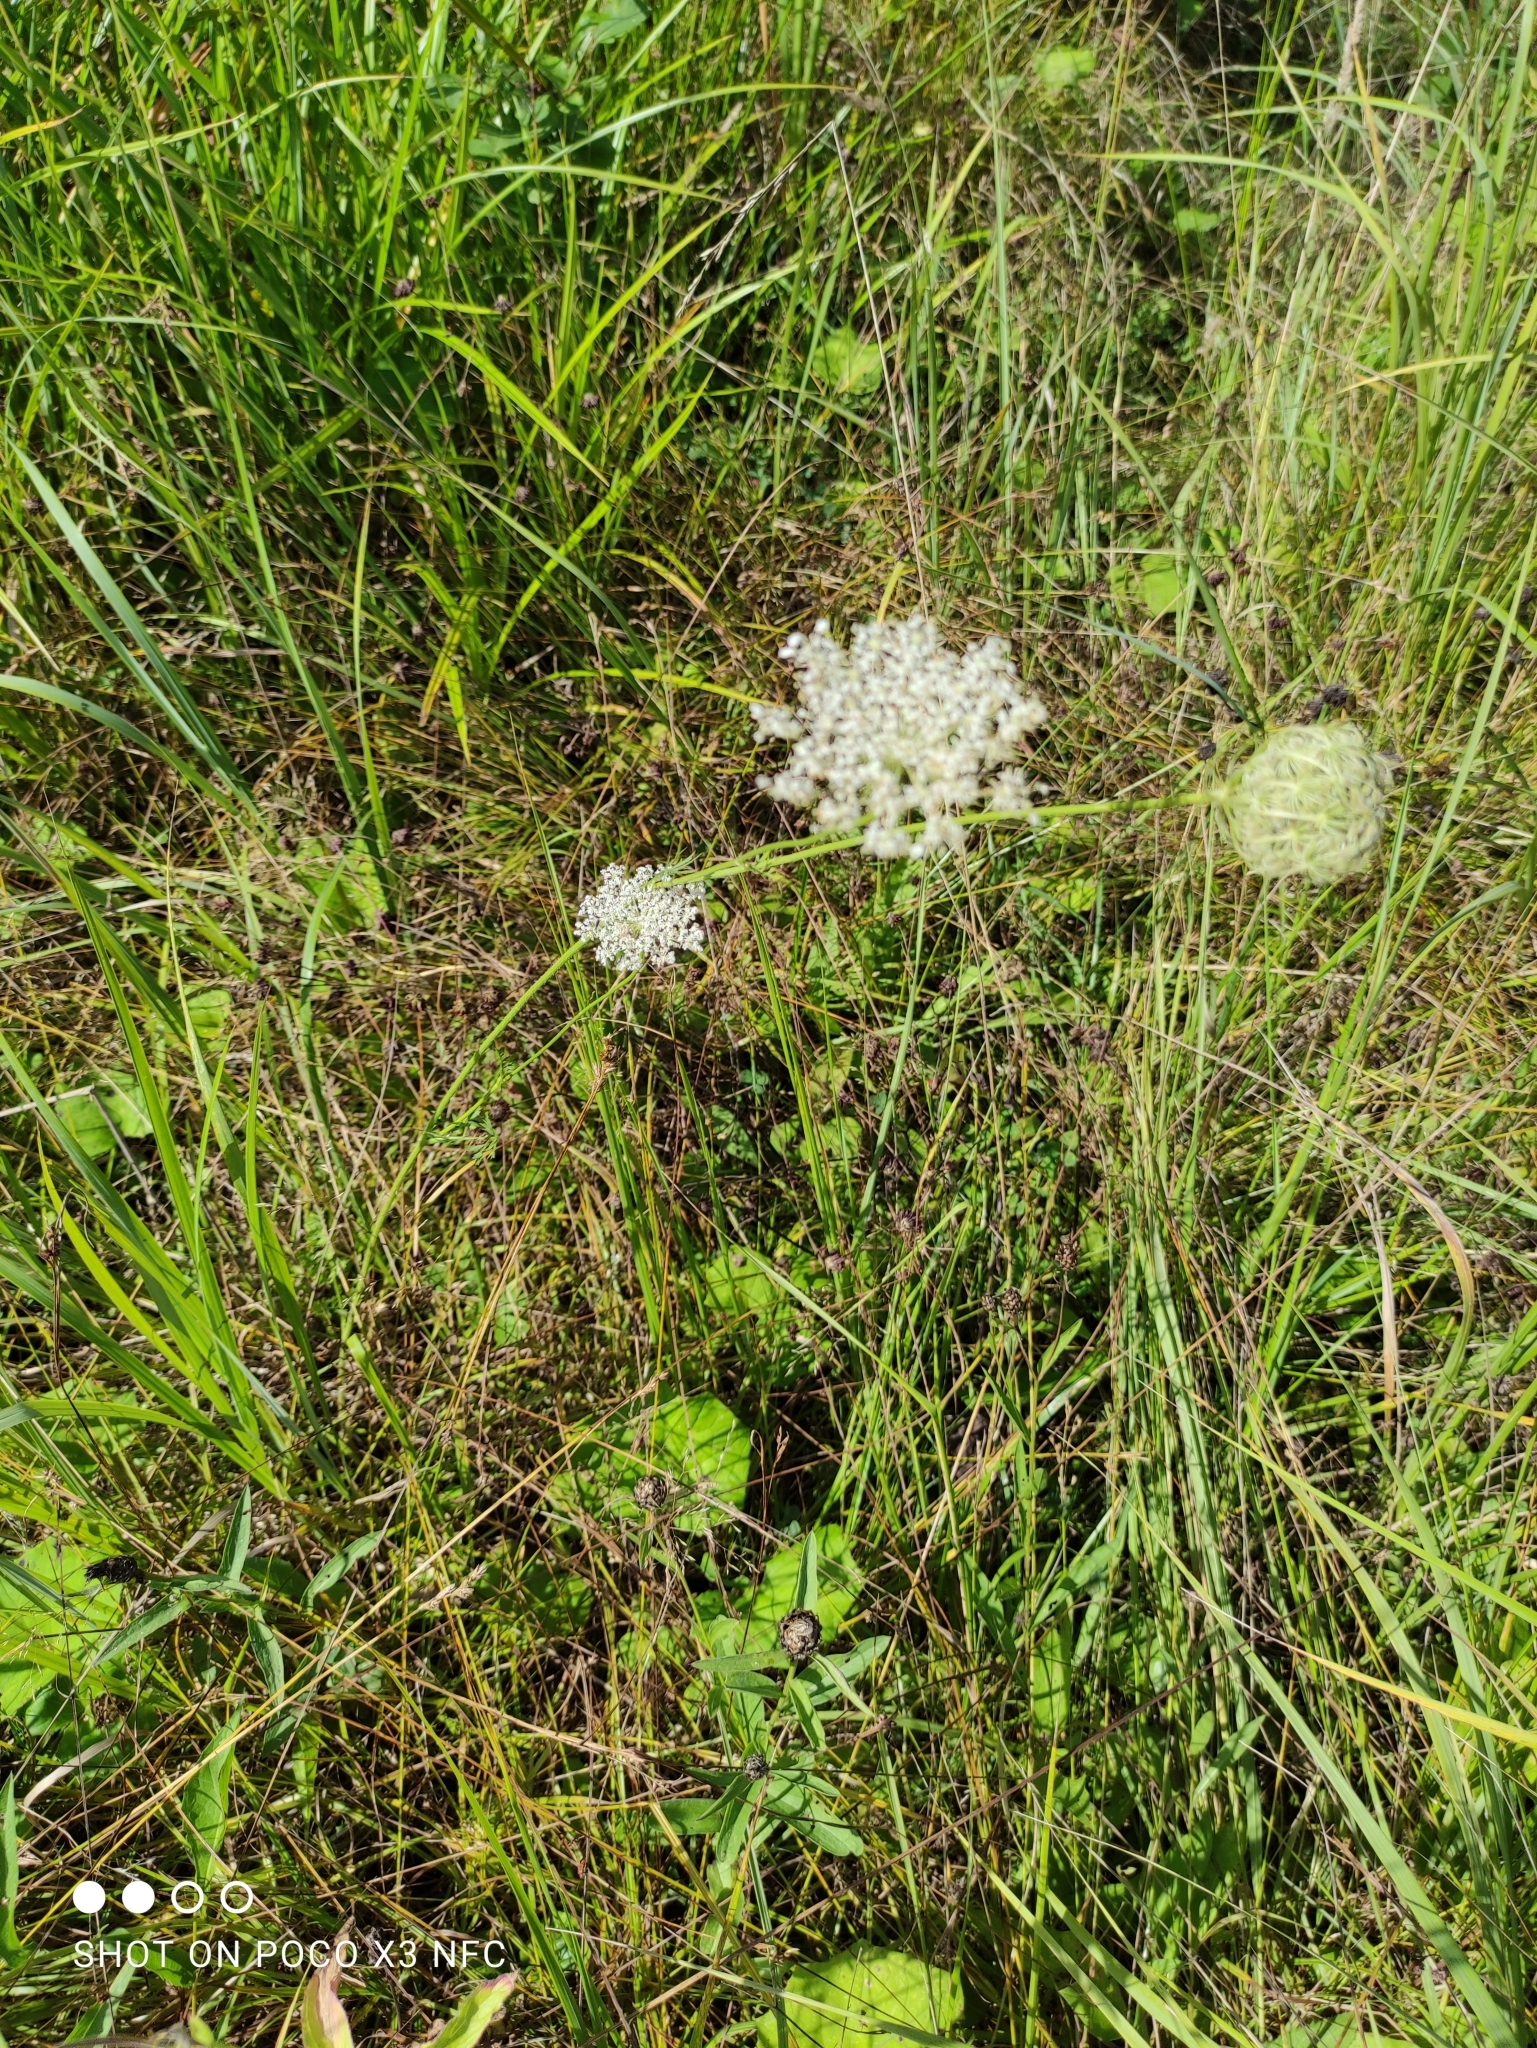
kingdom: Plantae
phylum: Tracheophyta
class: Magnoliopsida
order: Apiales
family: Apiaceae
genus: Daucus
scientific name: Daucus carota
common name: Wild carrot
